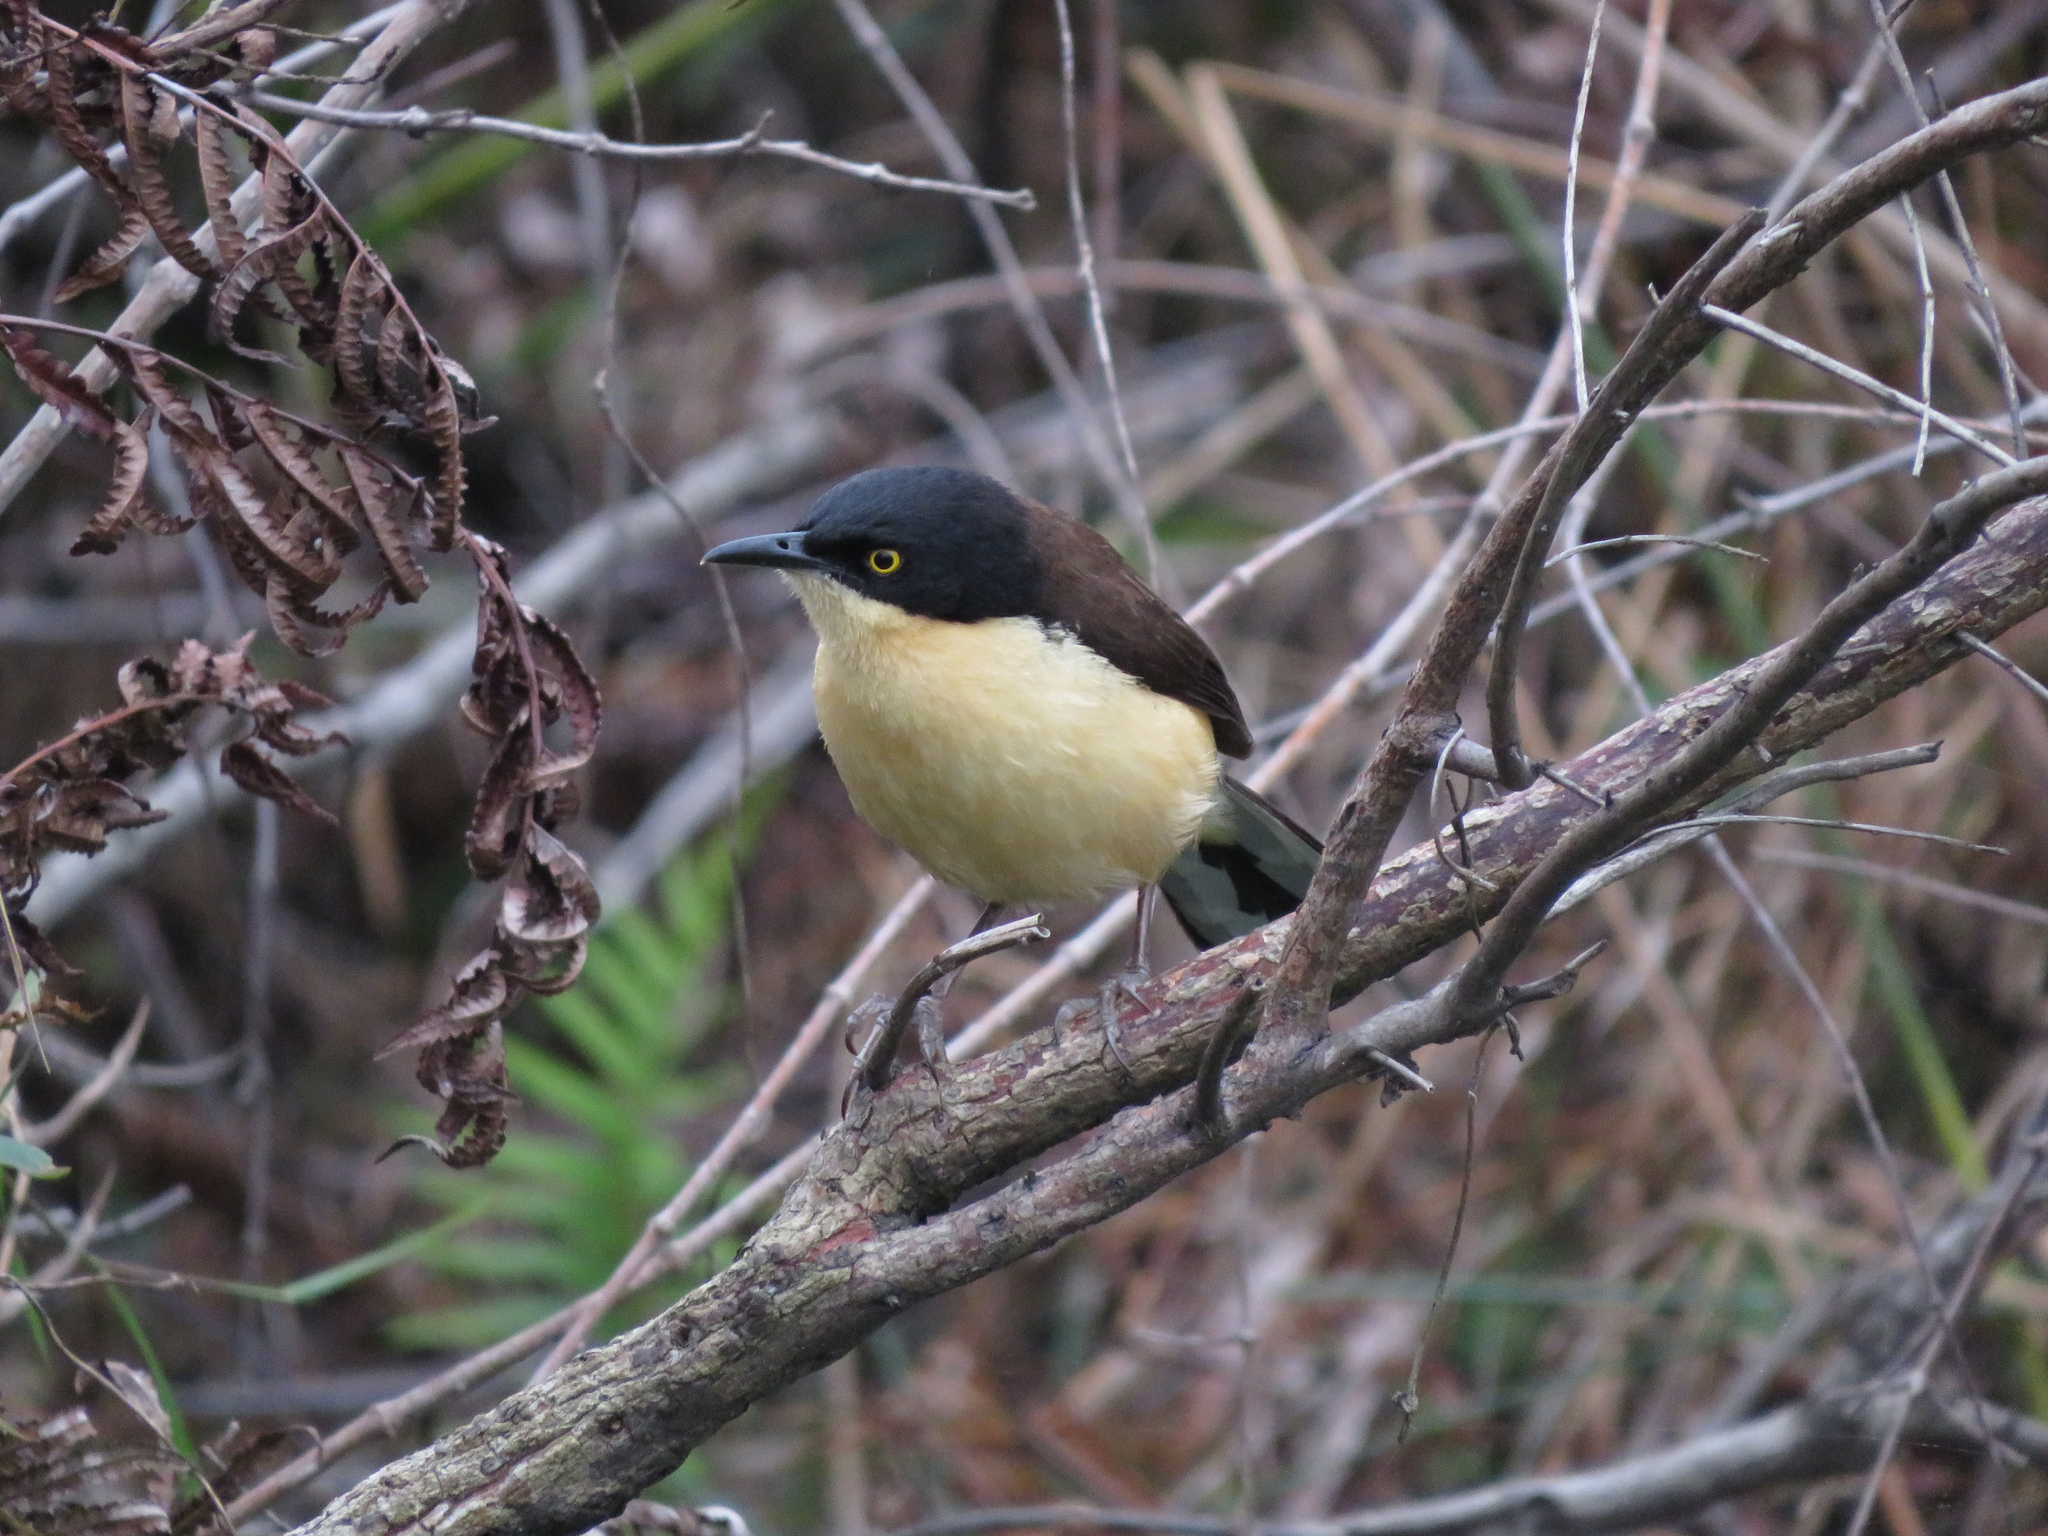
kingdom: Animalia
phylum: Chordata
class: Aves
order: Passeriformes
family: Donacobiidae
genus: Donacobius
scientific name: Donacobius atricapilla
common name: Black-capped donacobius
